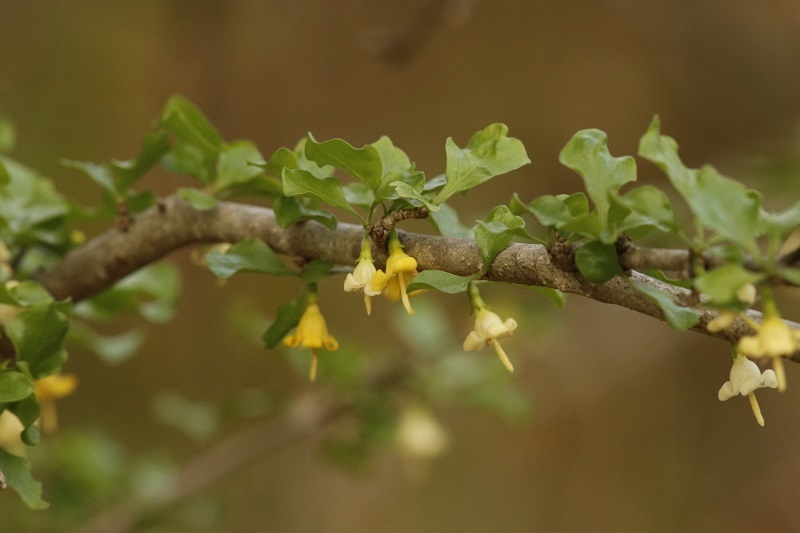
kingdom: Plantae
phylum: Tracheophyta
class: Magnoliopsida
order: Gentianales
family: Rubiaceae
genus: Coddia
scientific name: Coddia rudis
